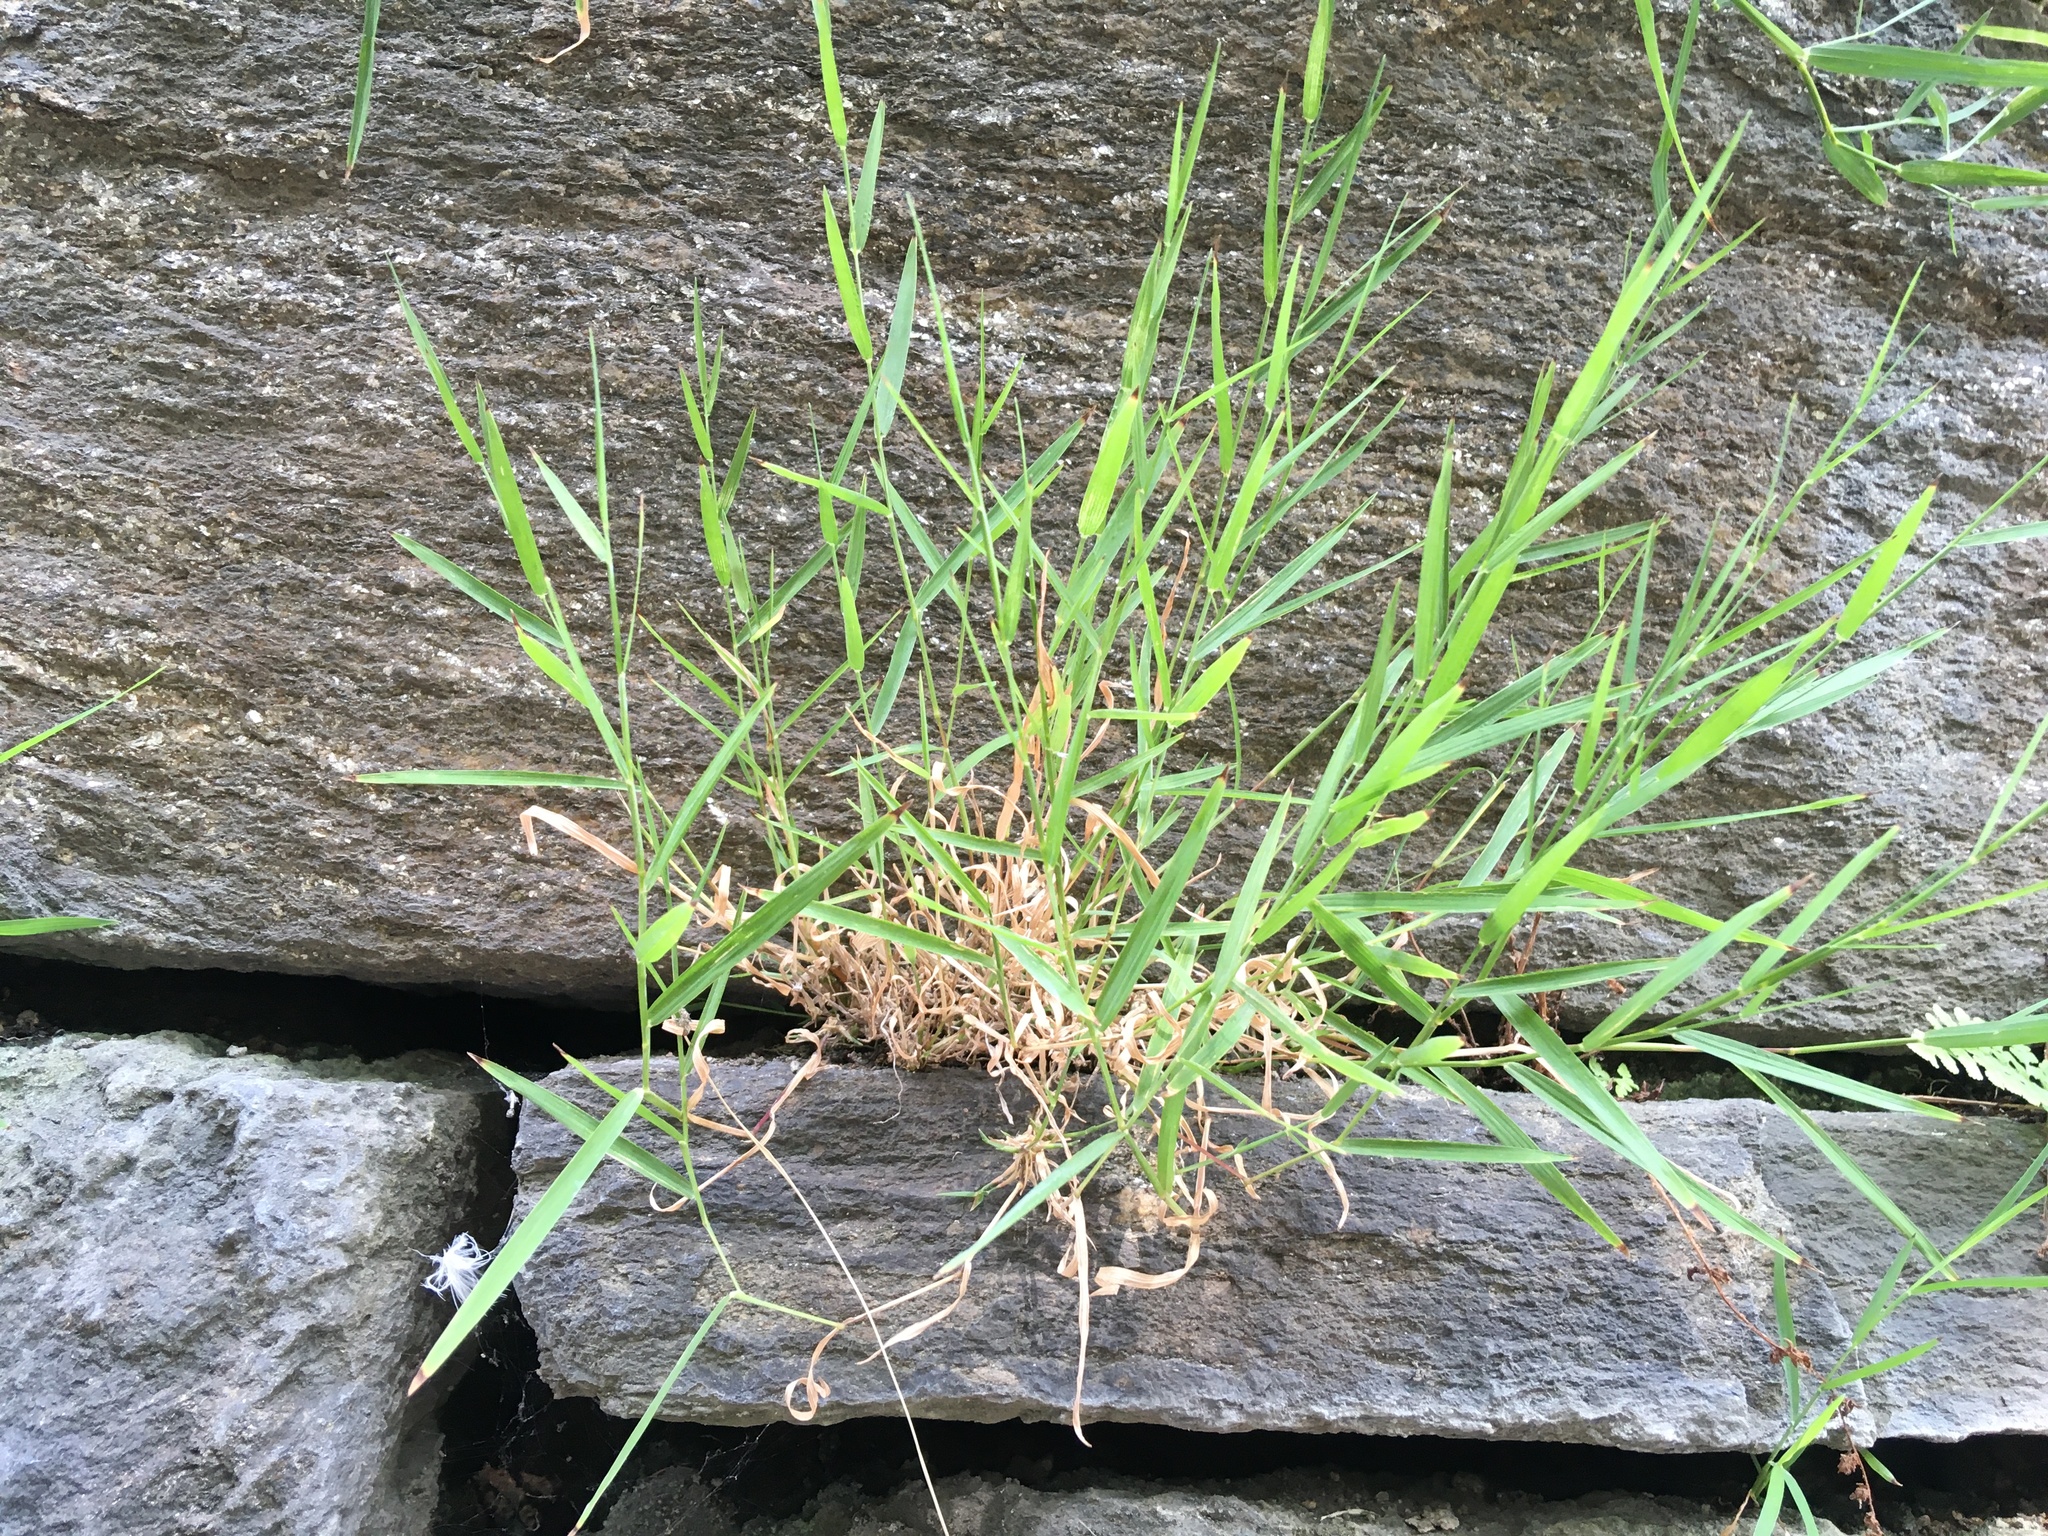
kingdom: Plantae
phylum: Tracheophyta
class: Liliopsida
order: Poales
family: Poaceae
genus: Muhlenbergia
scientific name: Muhlenbergia schreberi
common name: Nimblewill
